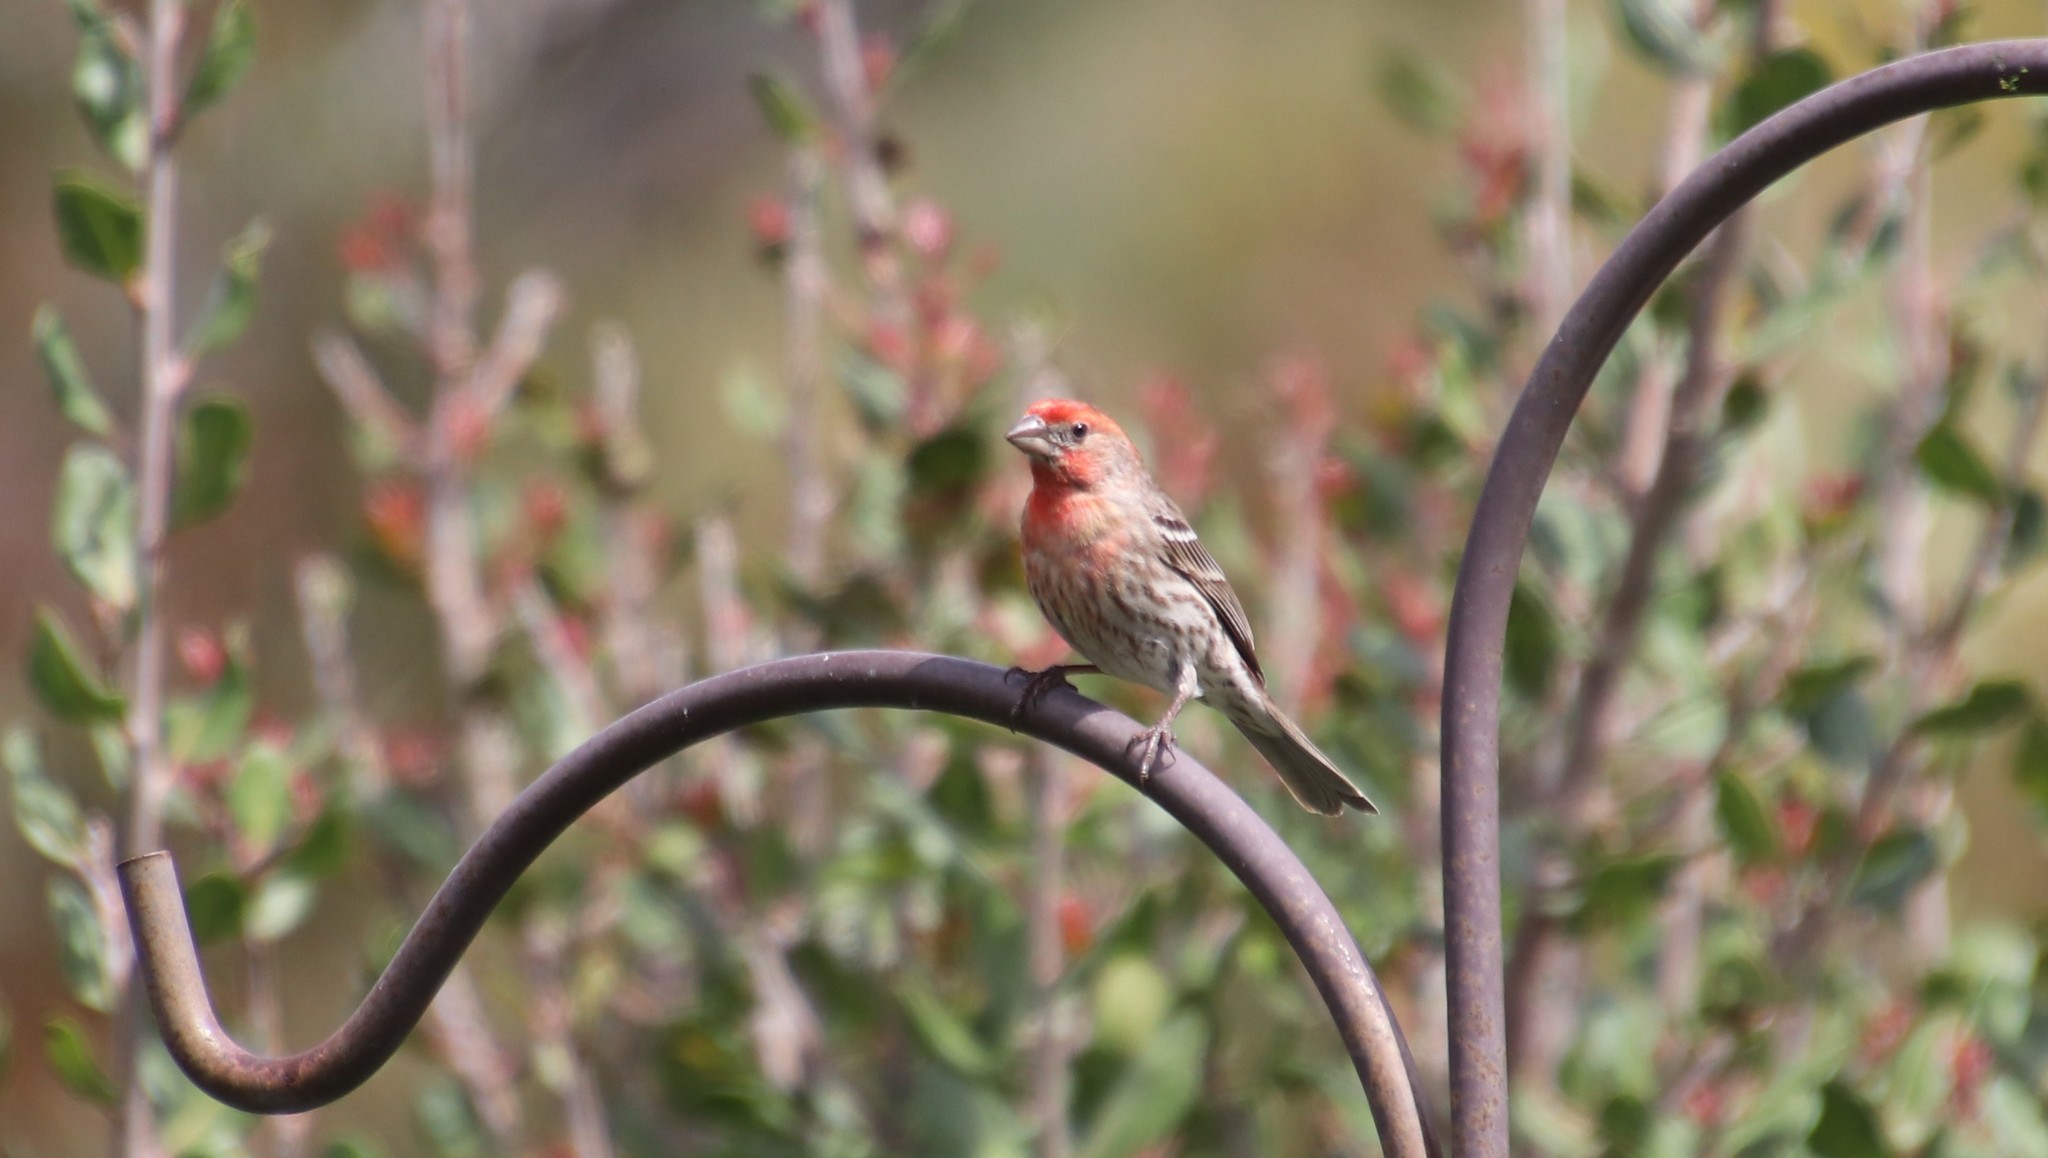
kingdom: Animalia
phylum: Chordata
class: Aves
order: Passeriformes
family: Fringillidae
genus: Haemorhous
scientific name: Haemorhous mexicanus
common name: House finch
